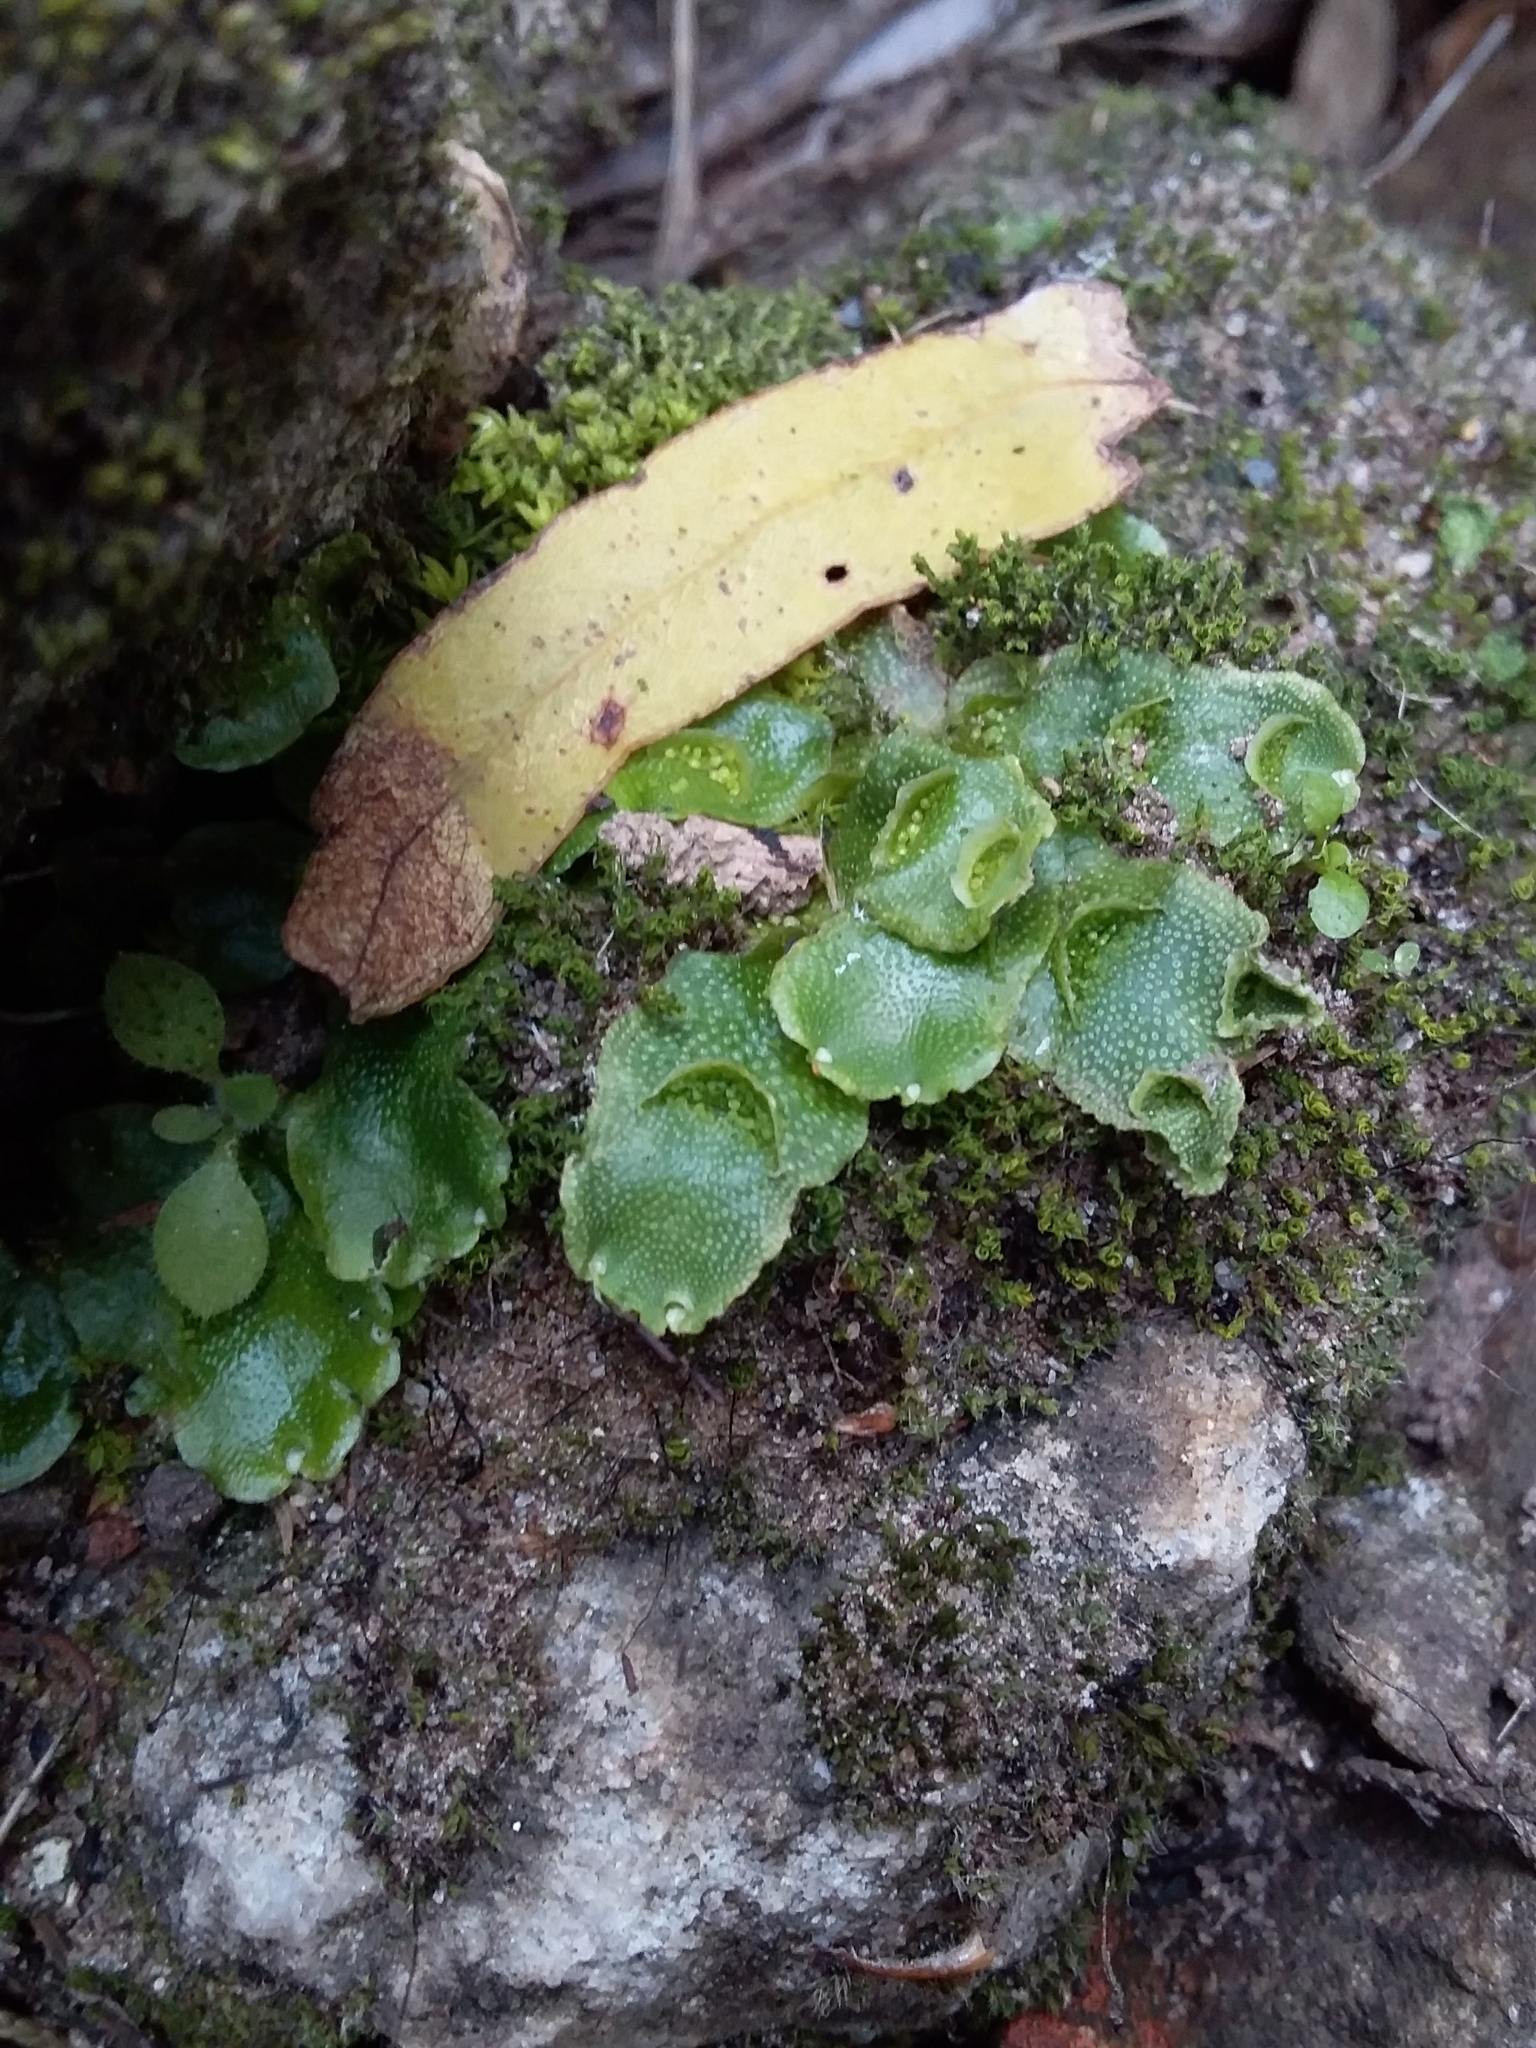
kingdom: Plantae
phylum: Marchantiophyta
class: Marchantiopsida
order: Lunulariales
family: Lunulariaceae
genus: Lunularia
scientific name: Lunularia cruciata
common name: Crescent-cup liverwort
